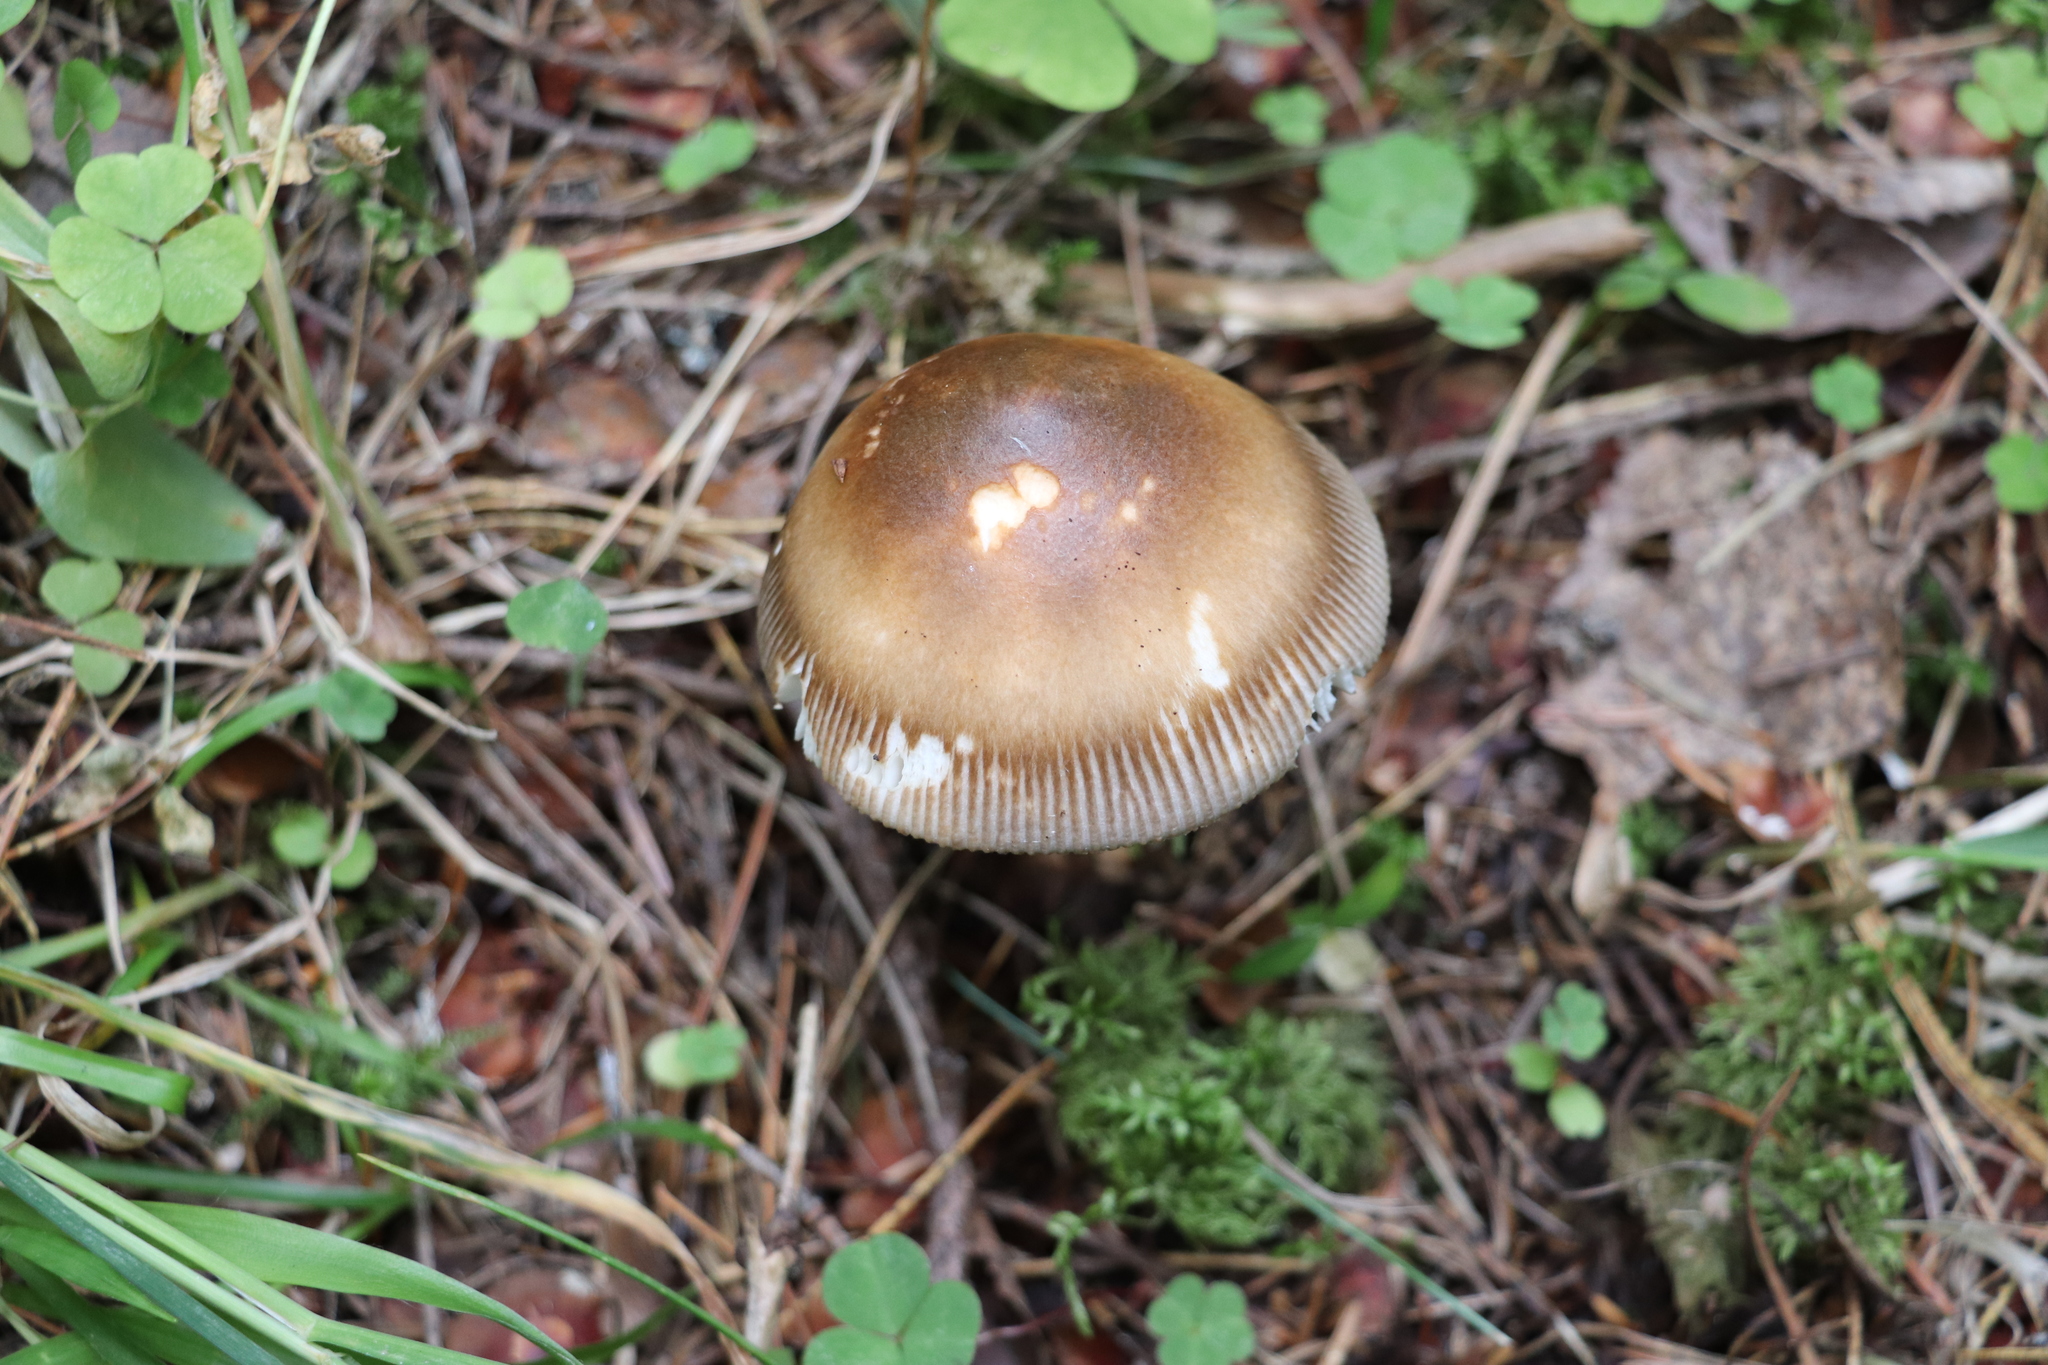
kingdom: Fungi
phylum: Basidiomycota
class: Agaricomycetes
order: Agaricales
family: Amanitaceae
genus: Amanita
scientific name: Amanita fulva
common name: Tawny grisette
